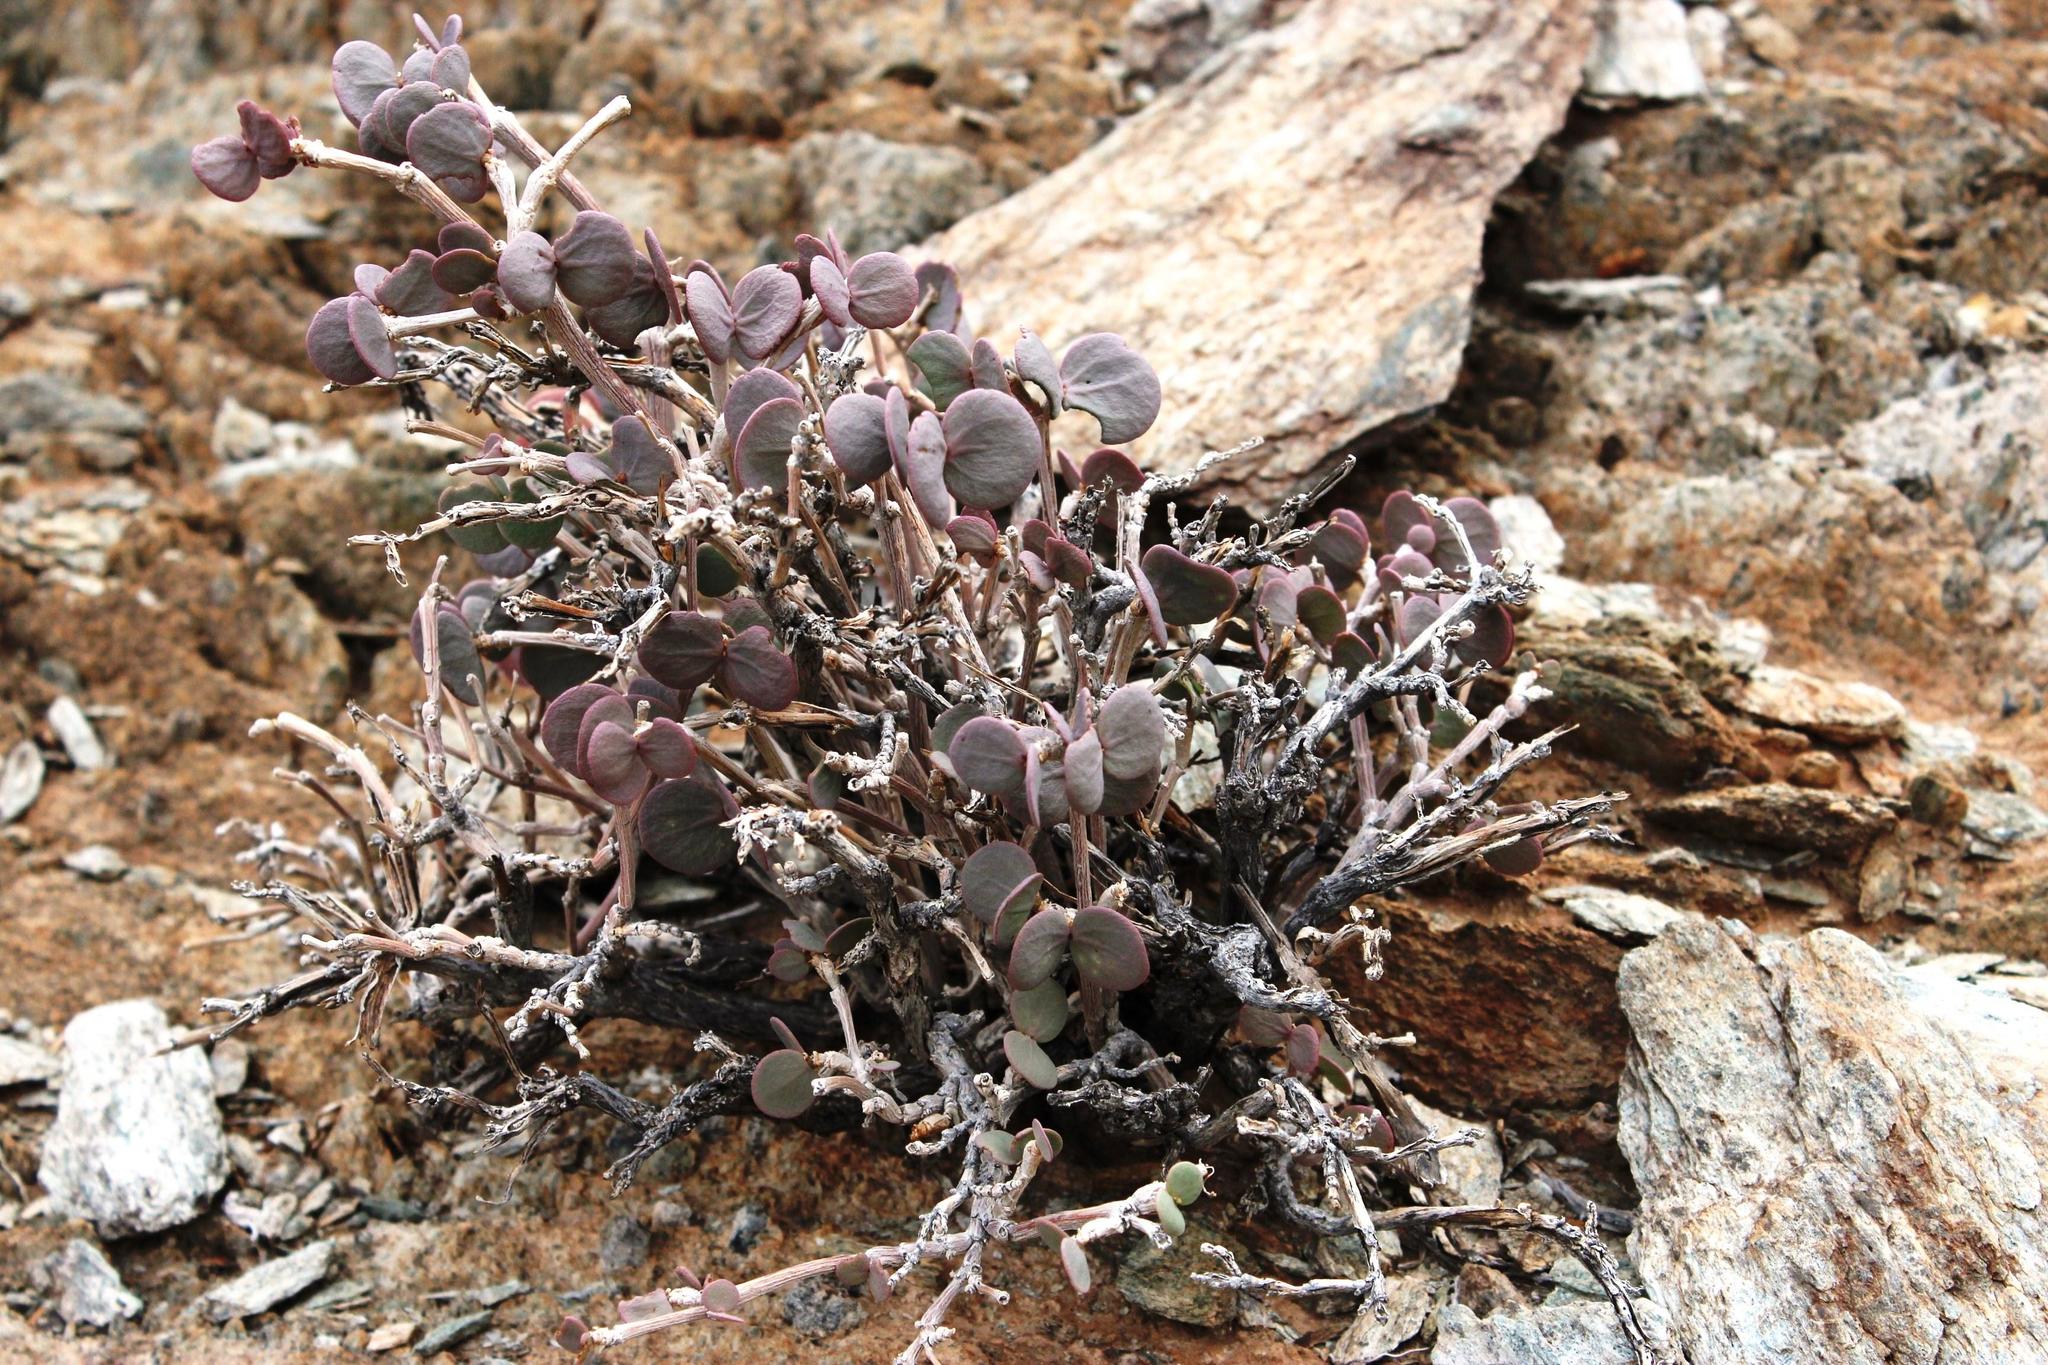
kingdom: Plantae
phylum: Tracheophyta
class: Magnoliopsida
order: Zygophyllales
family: Zygophyllaceae
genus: Roepera
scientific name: Roepera cordifolia
